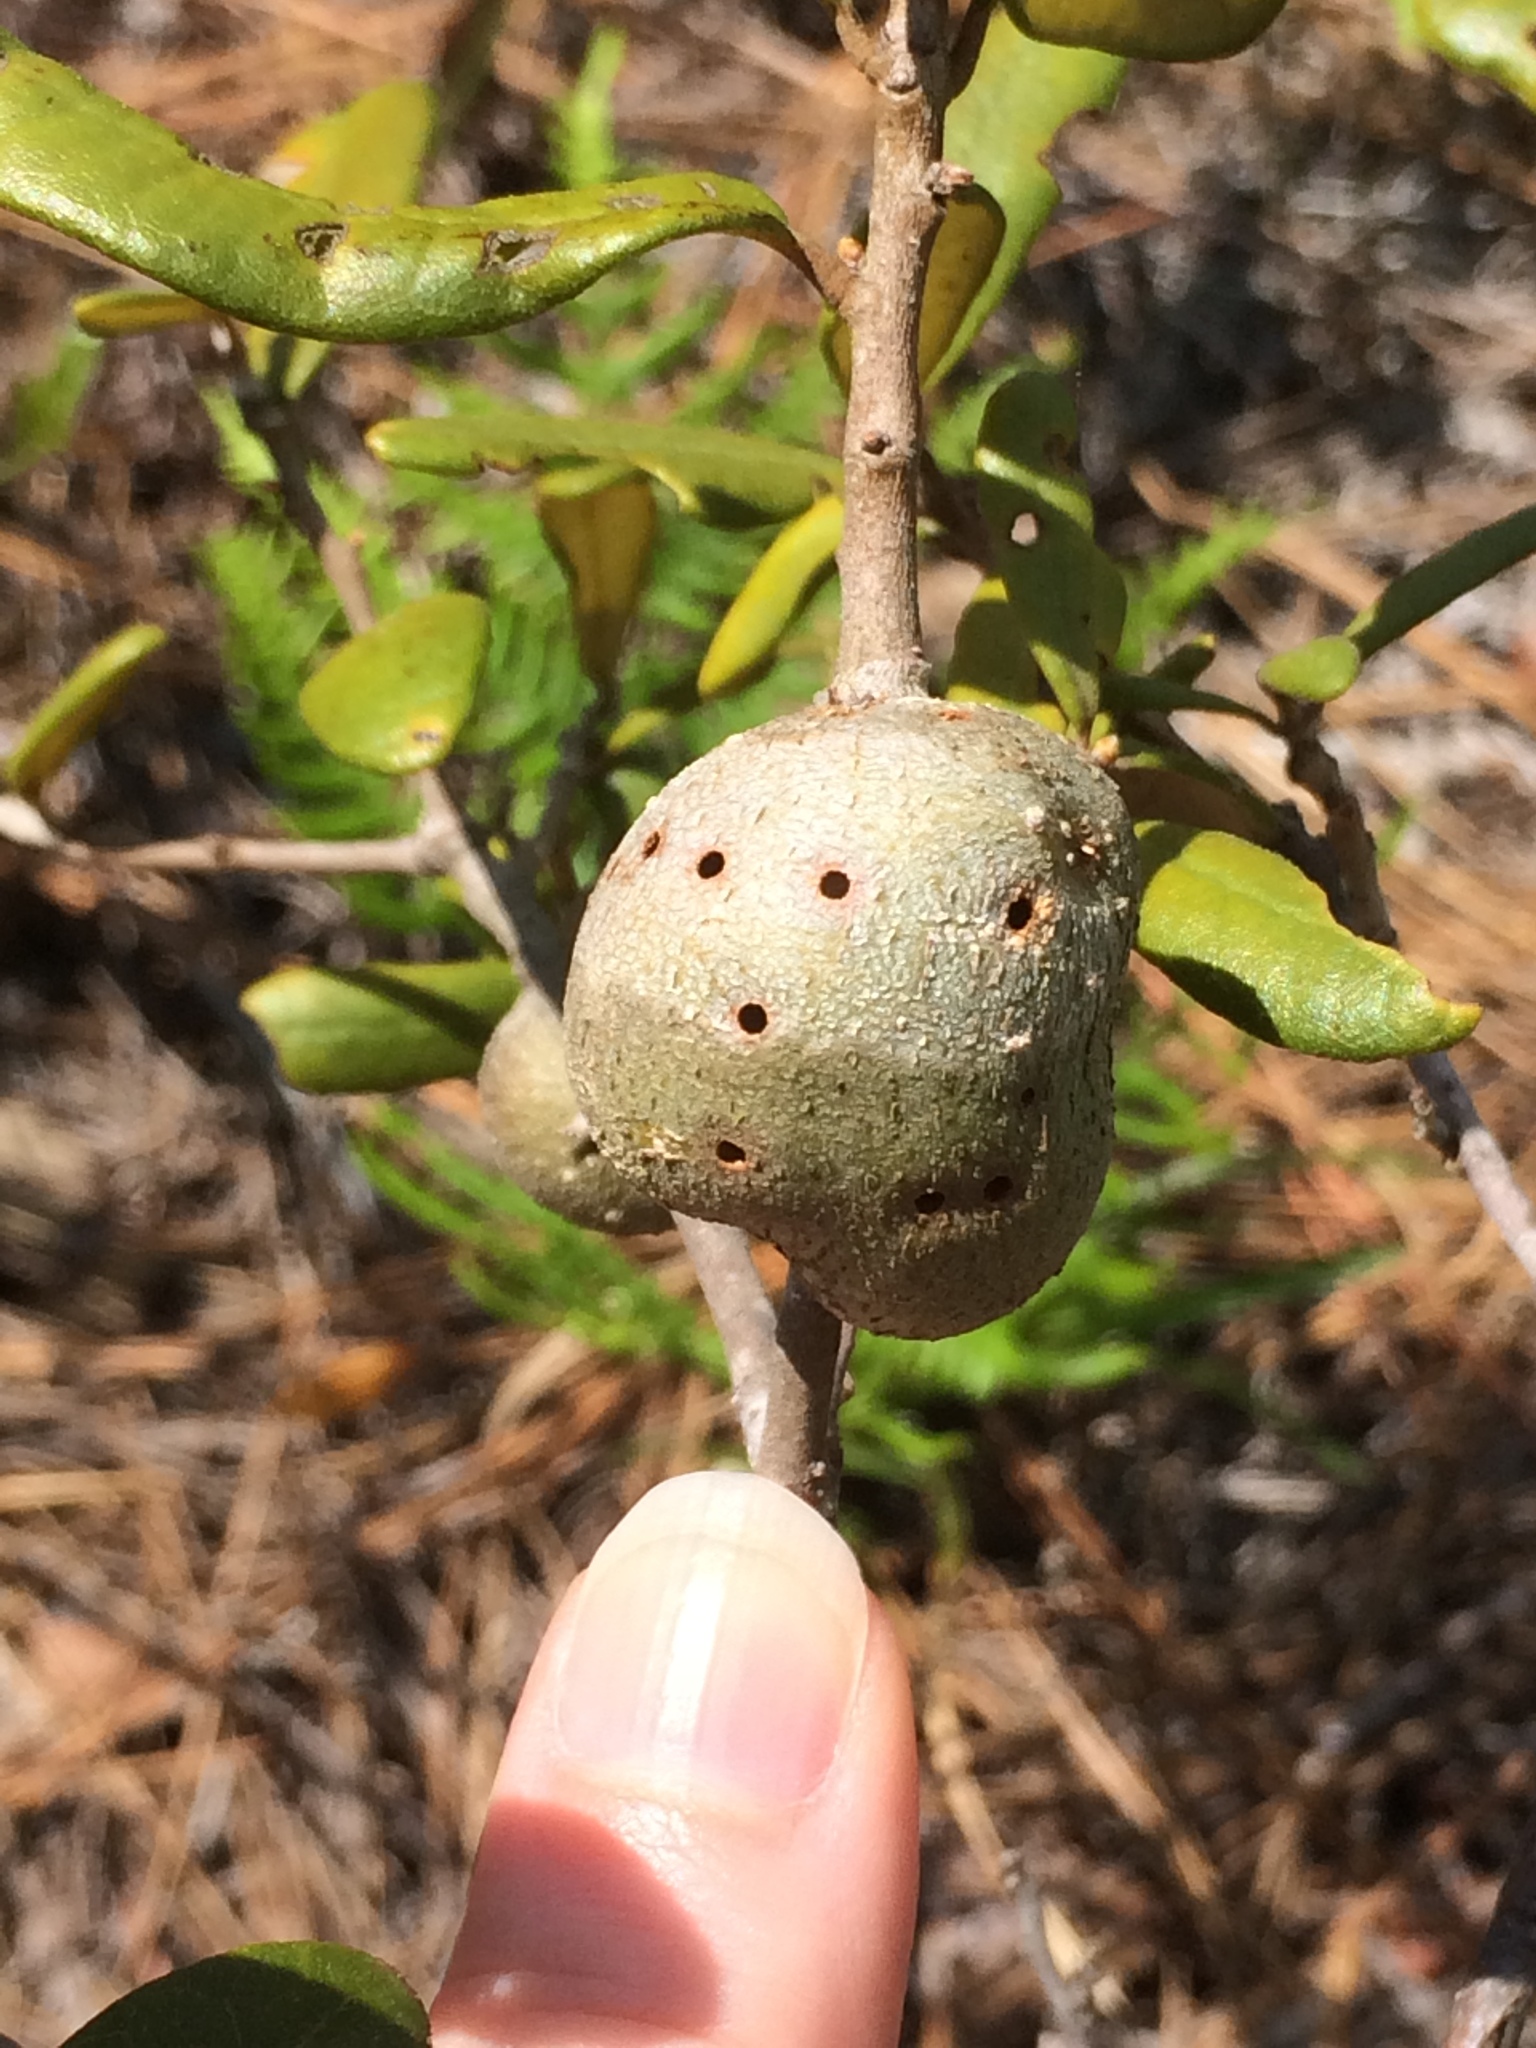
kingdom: Animalia
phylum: Arthropoda
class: Insecta
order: Hymenoptera
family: Cynipidae
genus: Callirhytis
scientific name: Callirhytis
